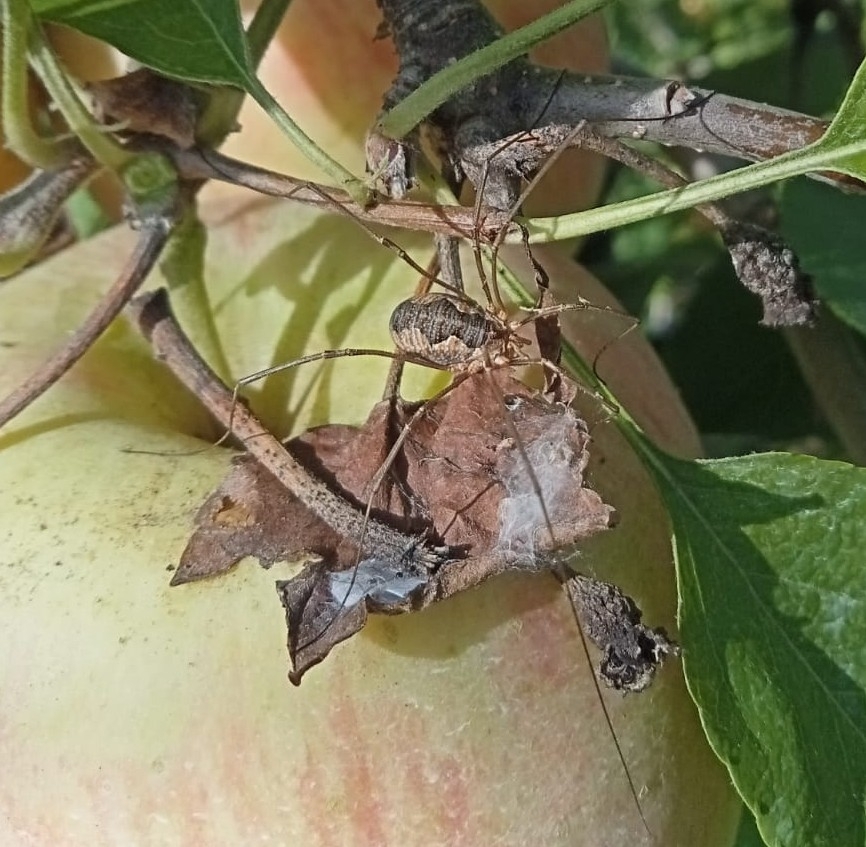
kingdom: Animalia
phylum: Arthropoda
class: Arachnida
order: Opiliones
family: Phalangiidae
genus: Phalangium
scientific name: Phalangium opilio
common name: Daddy longleg
